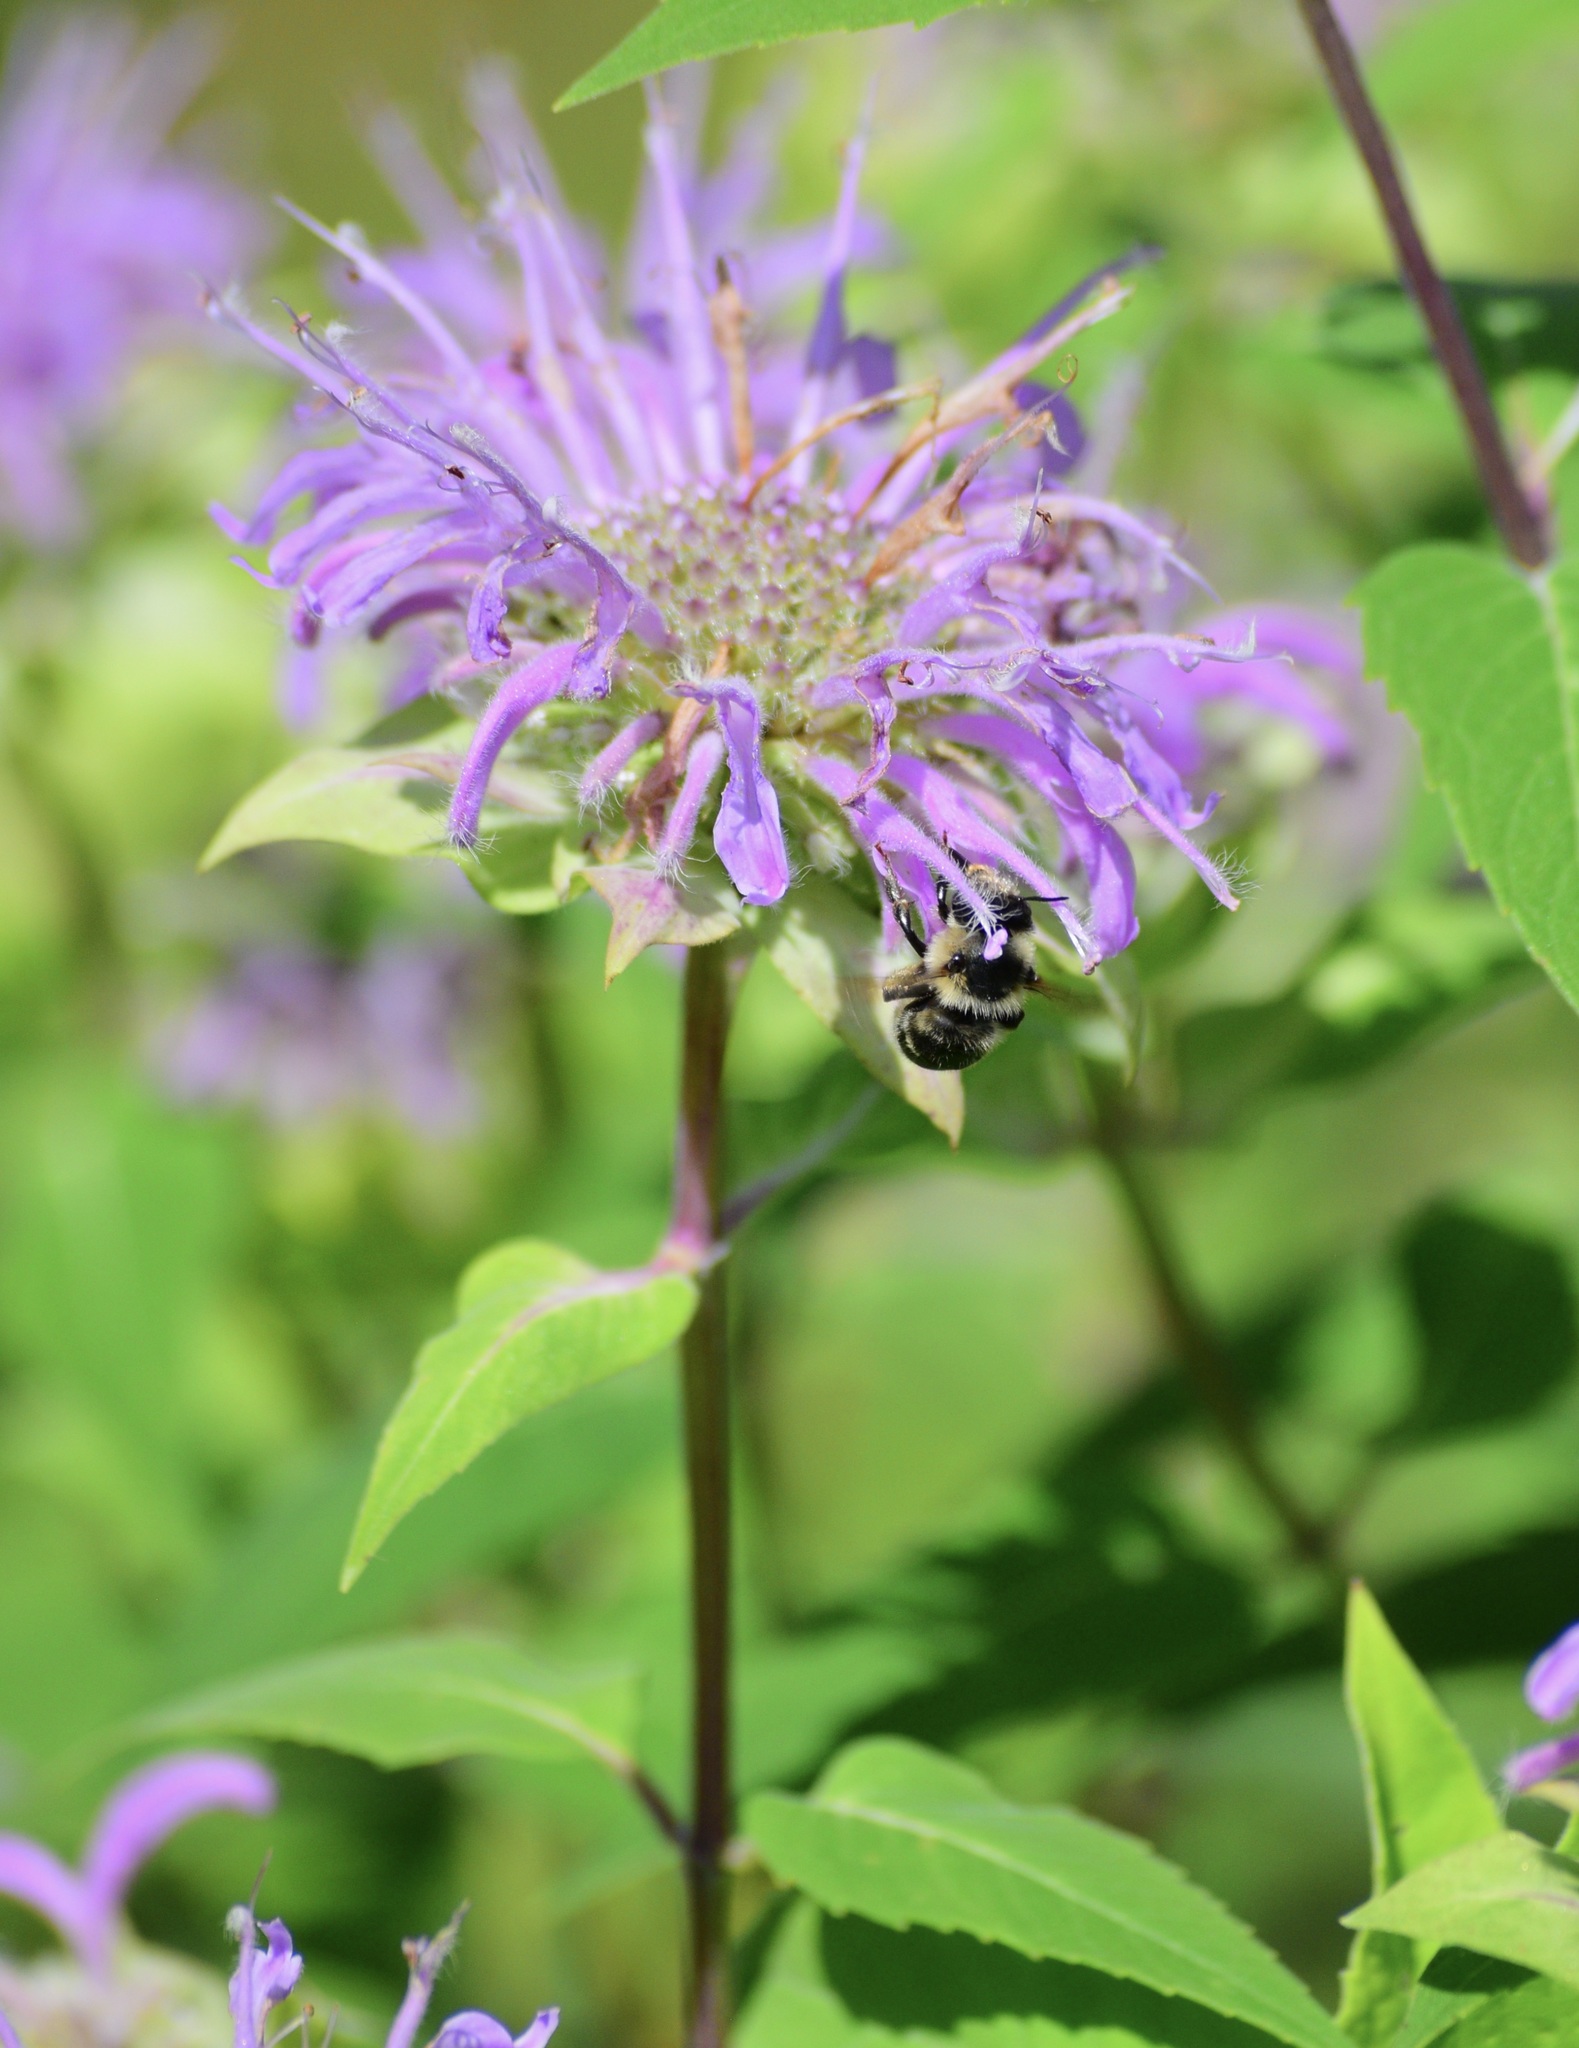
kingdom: Animalia
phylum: Arthropoda
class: Insecta
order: Hymenoptera
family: Apidae
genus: Anthophora
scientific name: Anthophora terminalis
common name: Orange-tipped wood-digger bee
